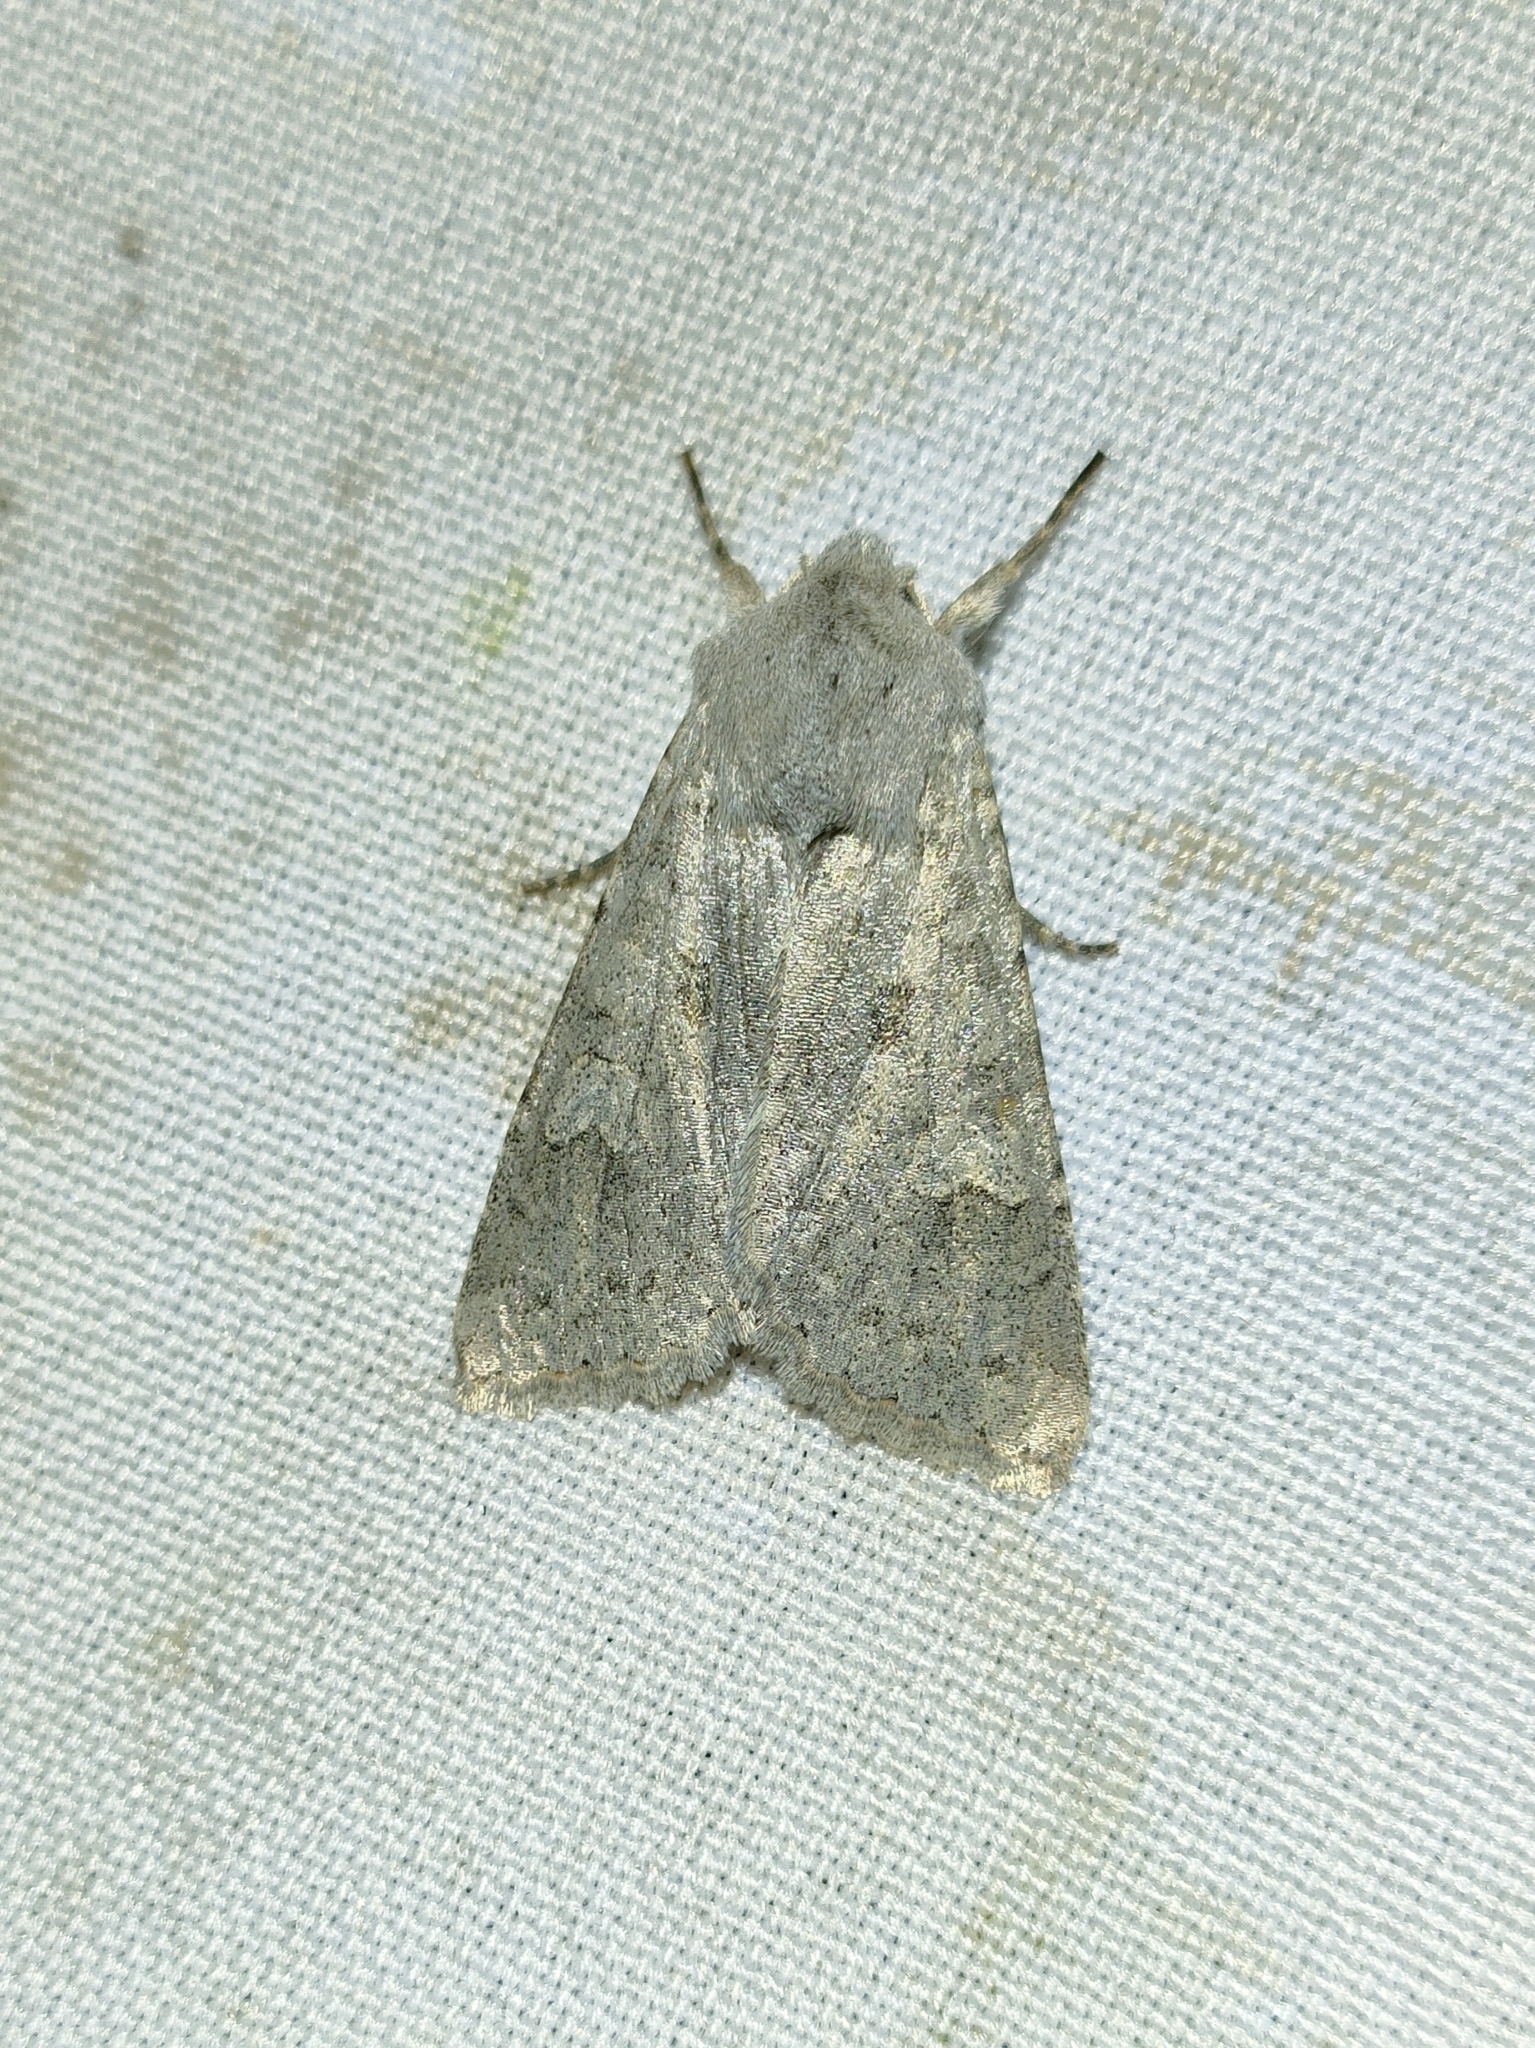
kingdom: Animalia
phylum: Arthropoda
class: Insecta
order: Lepidoptera
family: Noctuidae
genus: Ammoconia
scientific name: Ammoconia senex
